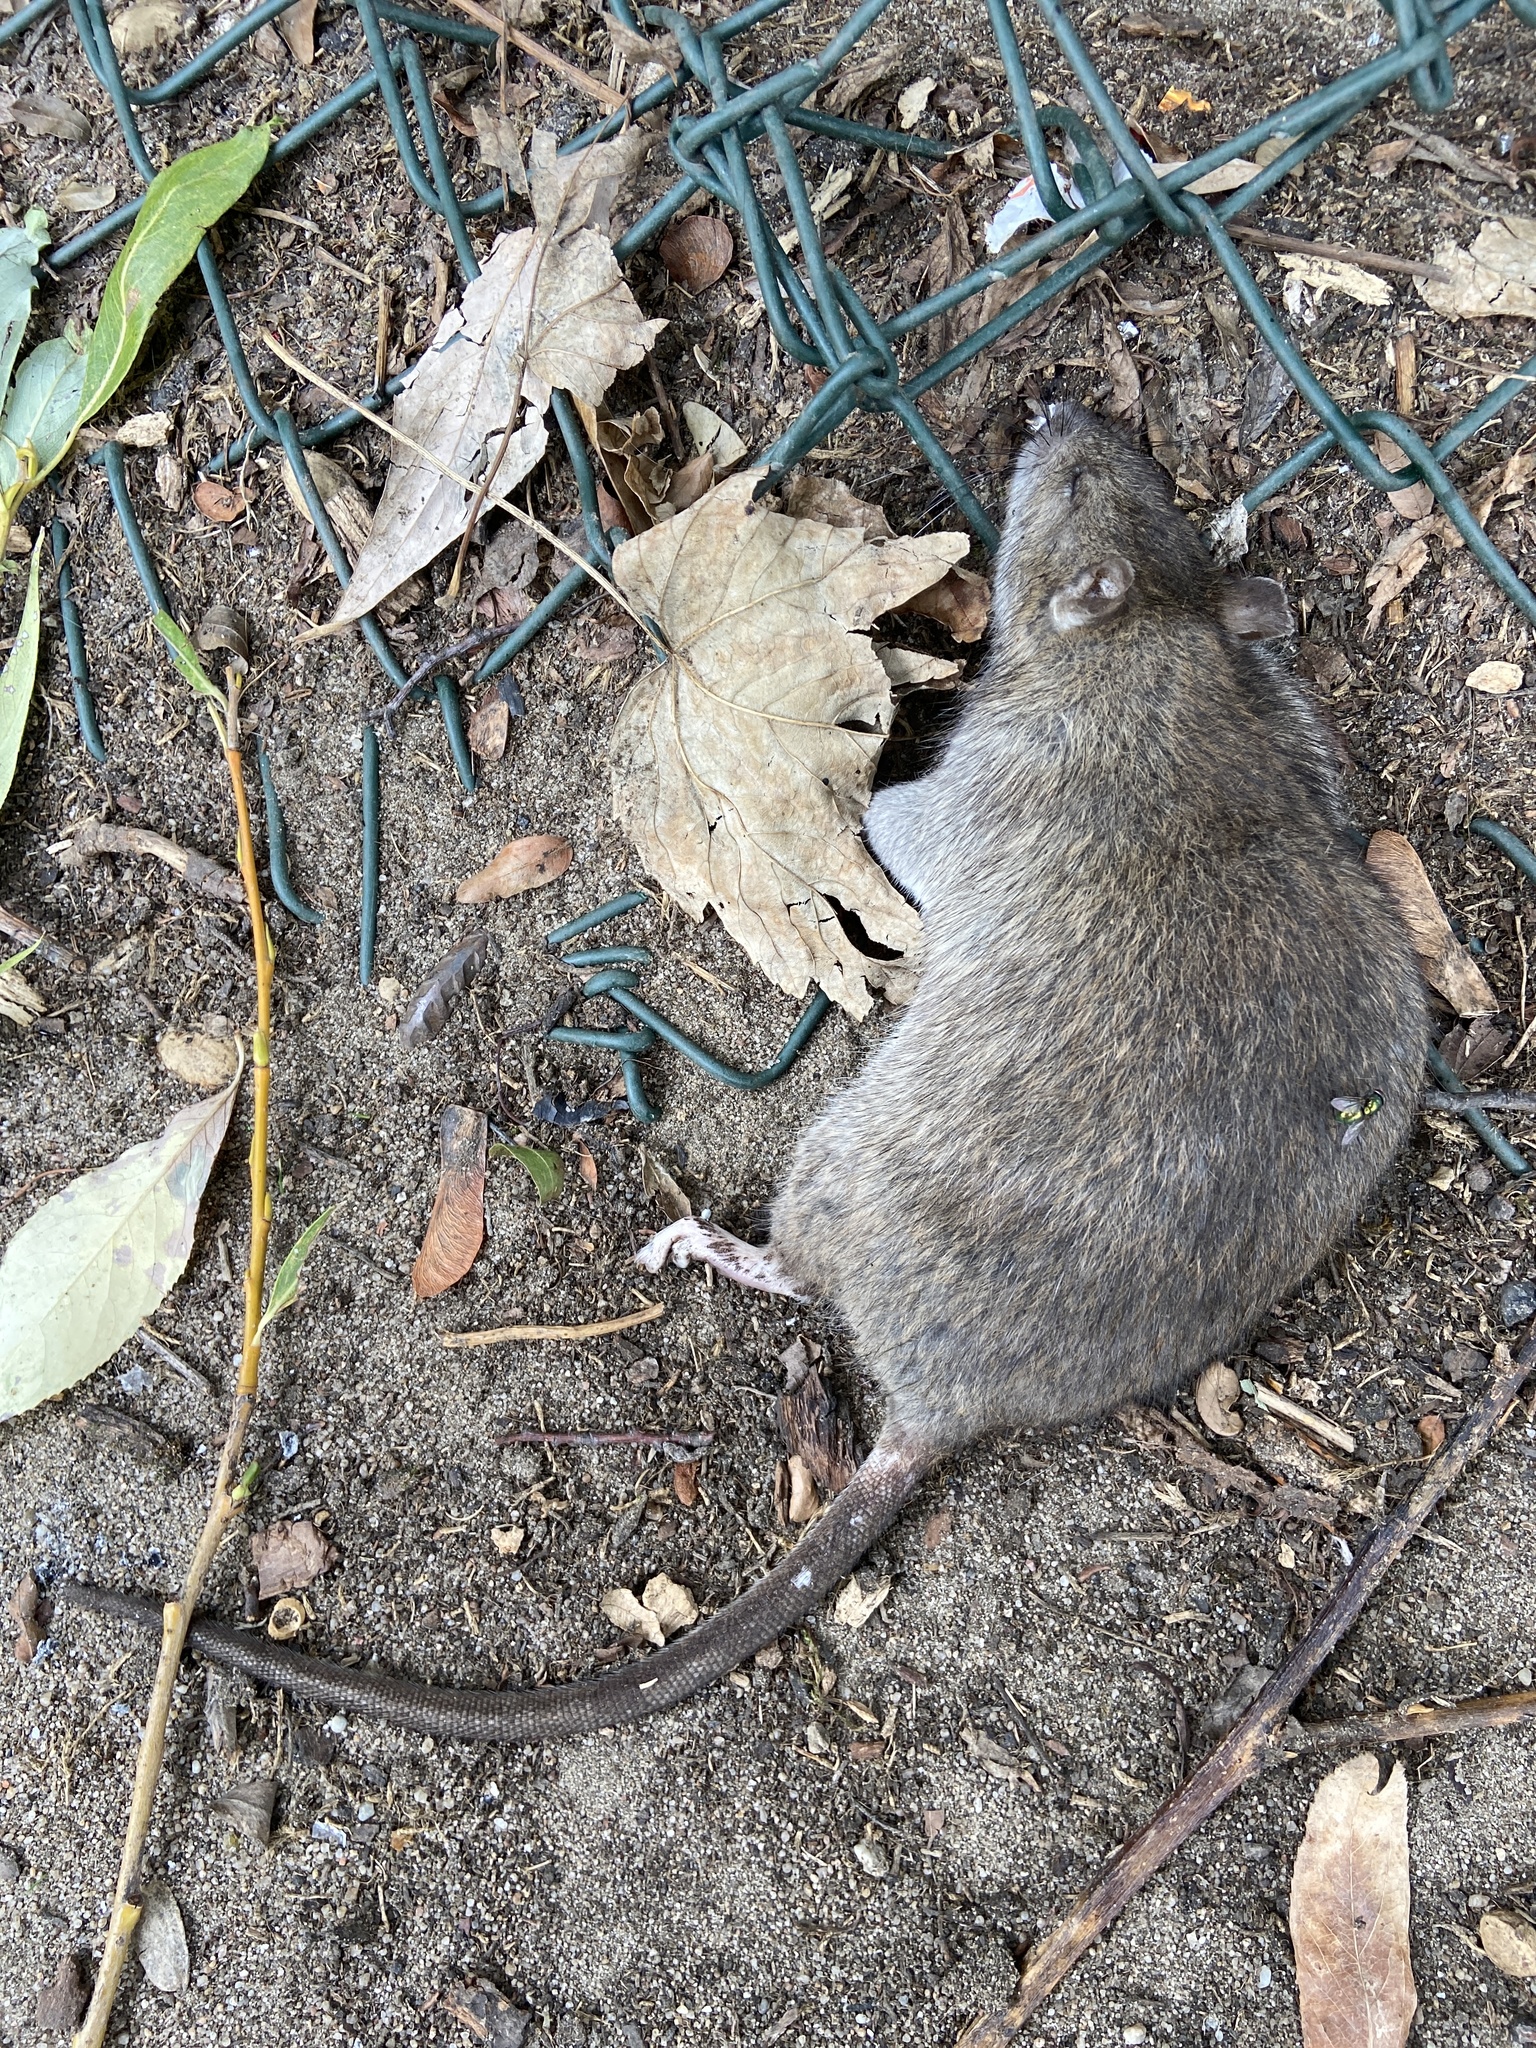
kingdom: Animalia
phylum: Chordata
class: Mammalia
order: Rodentia
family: Muridae
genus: Rattus
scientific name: Rattus norvegicus
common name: Brown rat
